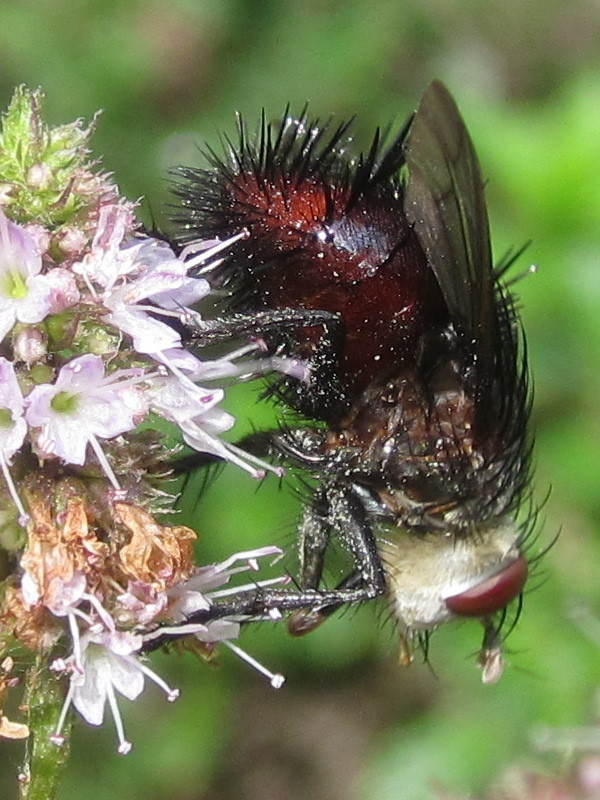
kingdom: Animalia
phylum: Arthropoda
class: Insecta
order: Diptera
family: Tachinidae
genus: Juriniopsis
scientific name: Juriniopsis adusta
